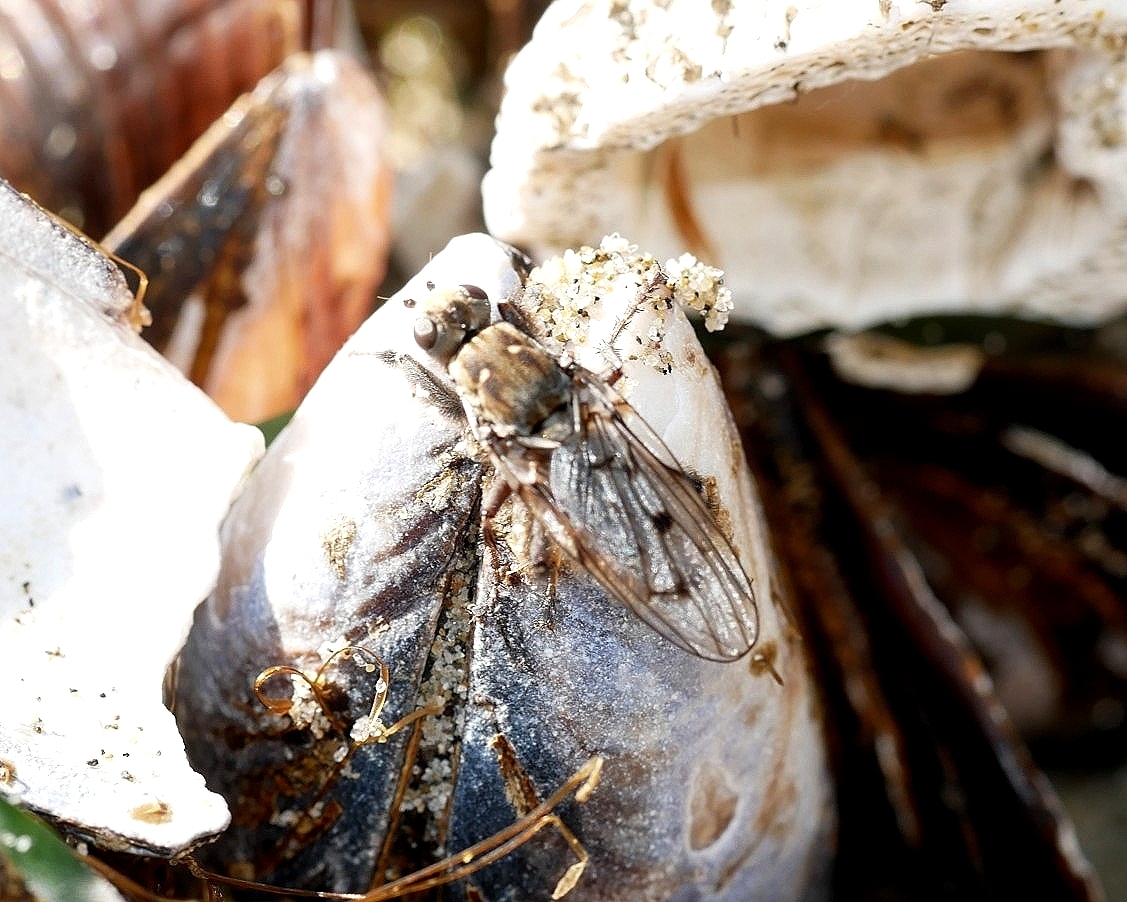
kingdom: Animalia
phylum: Arthropoda
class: Insecta
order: Diptera
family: Helcomyzidae
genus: Helcomyza
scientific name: Helcomyza mirabilis
